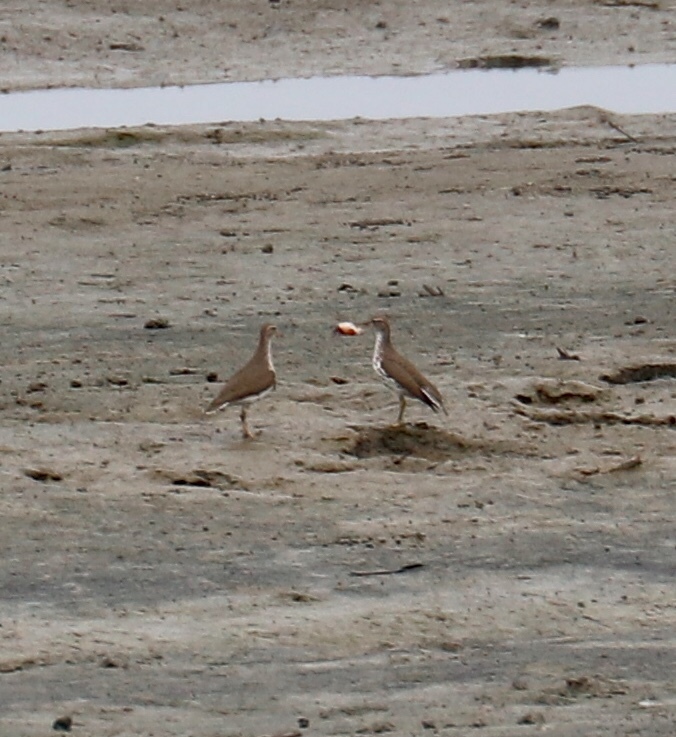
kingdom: Animalia
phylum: Chordata
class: Aves
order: Charadriiformes
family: Scolopacidae
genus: Actitis
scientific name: Actitis macularius
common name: Spotted sandpiper
